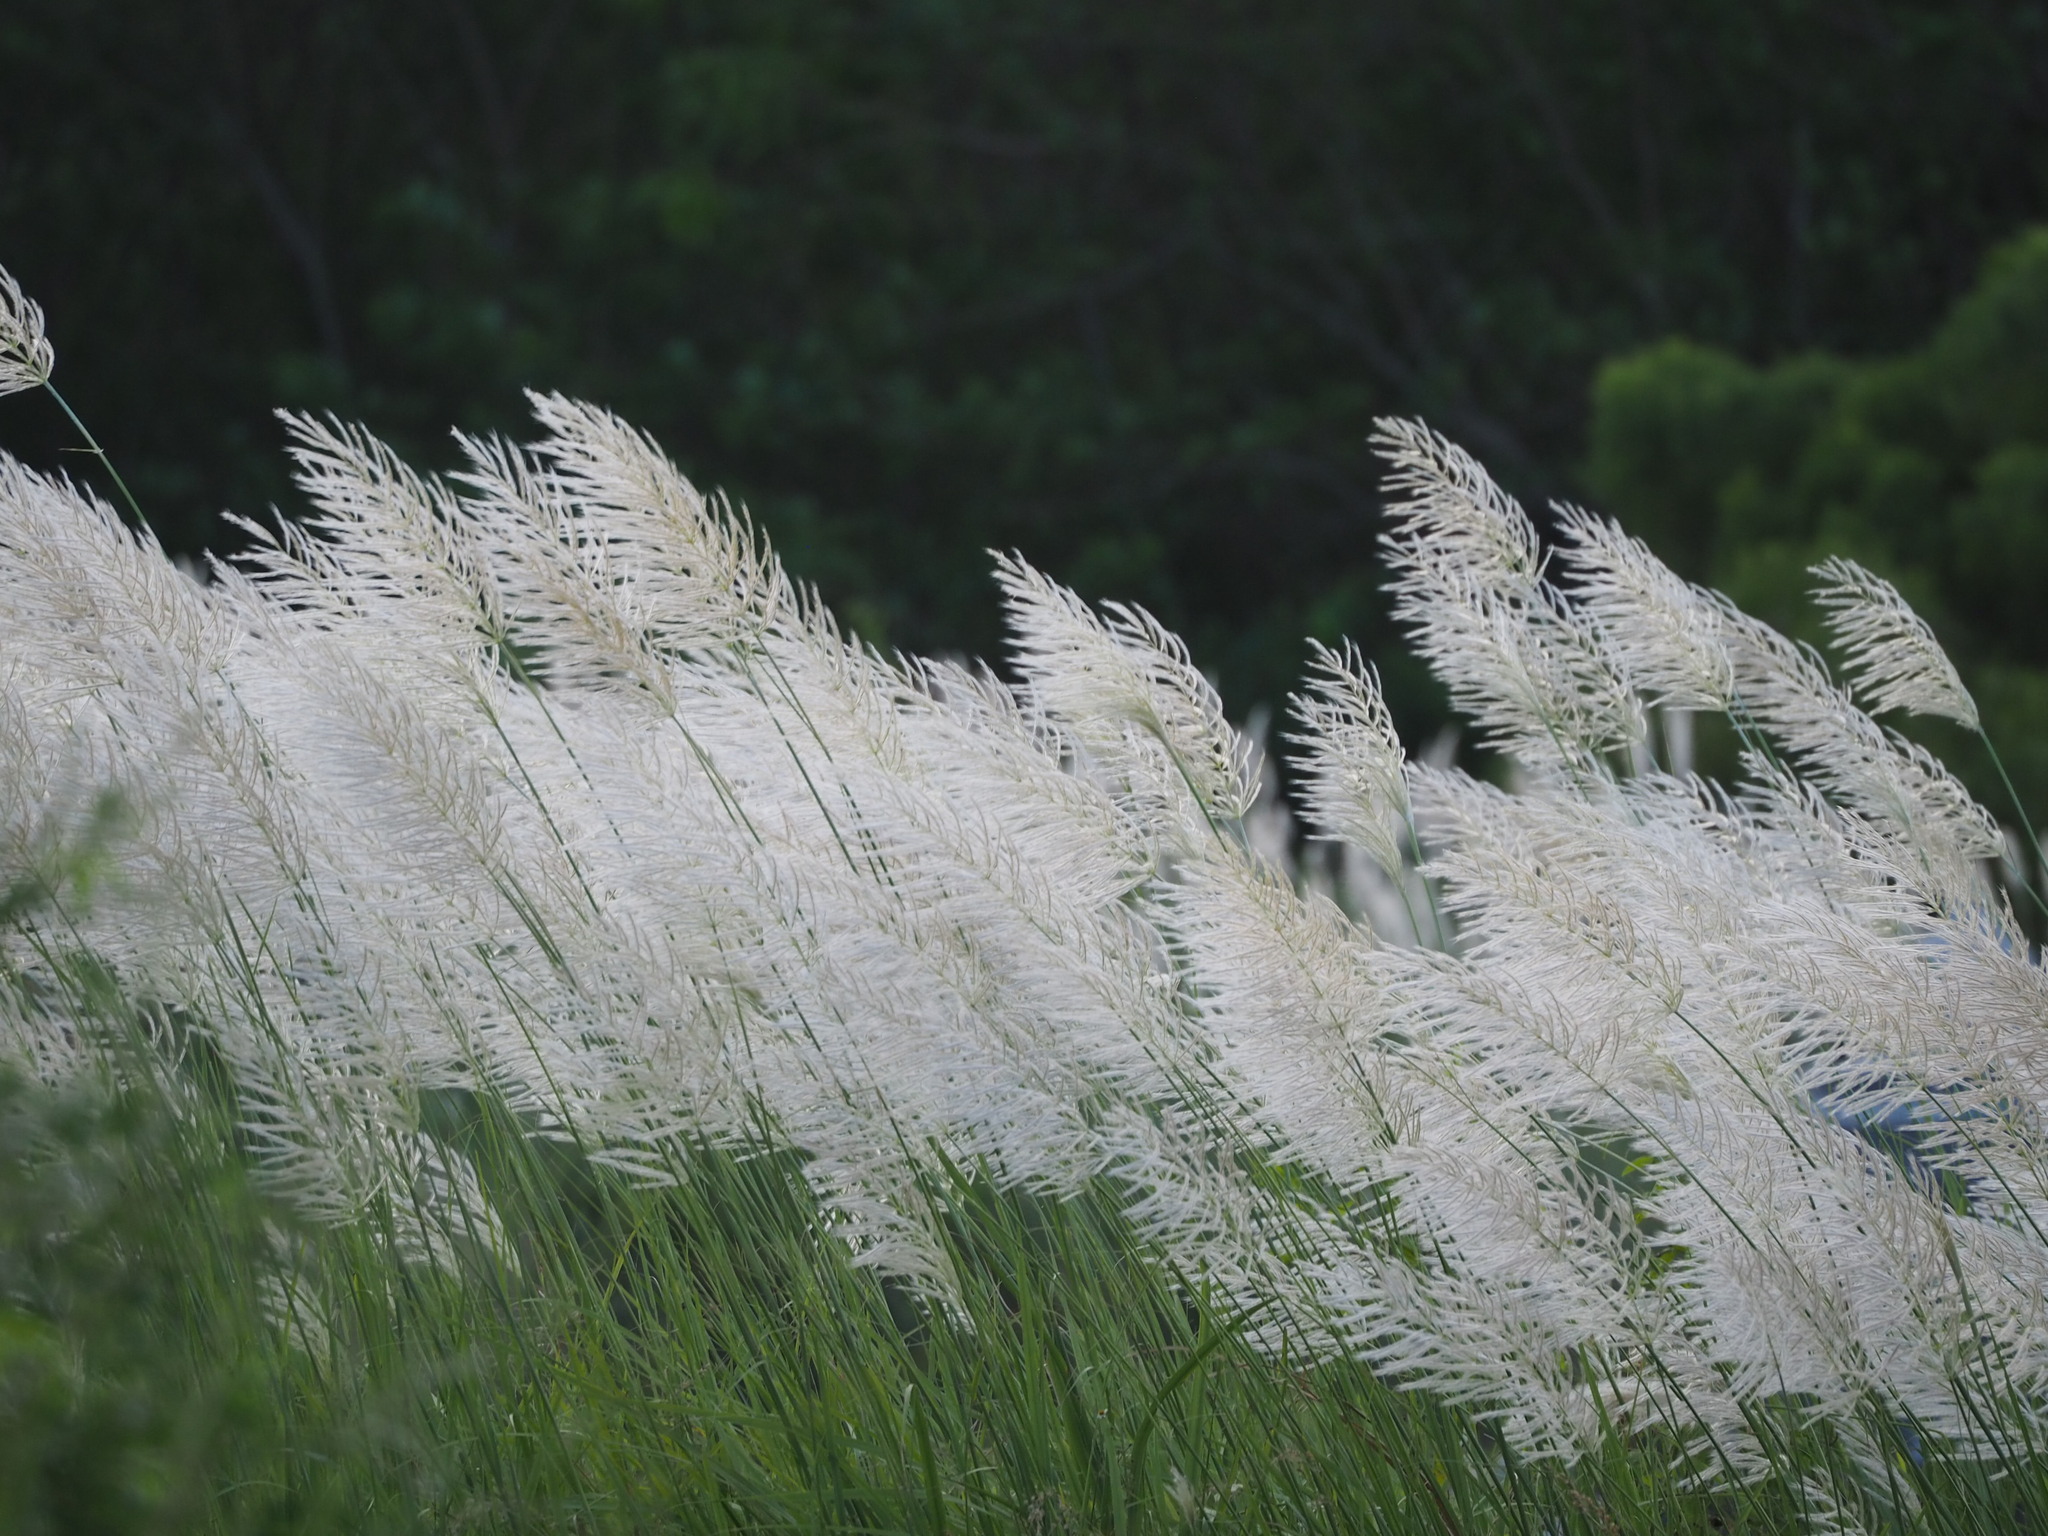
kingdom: Plantae
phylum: Tracheophyta
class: Liliopsida
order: Poales
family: Poaceae
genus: Saccharum
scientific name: Saccharum spontaneum
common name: Wild sugarcane
